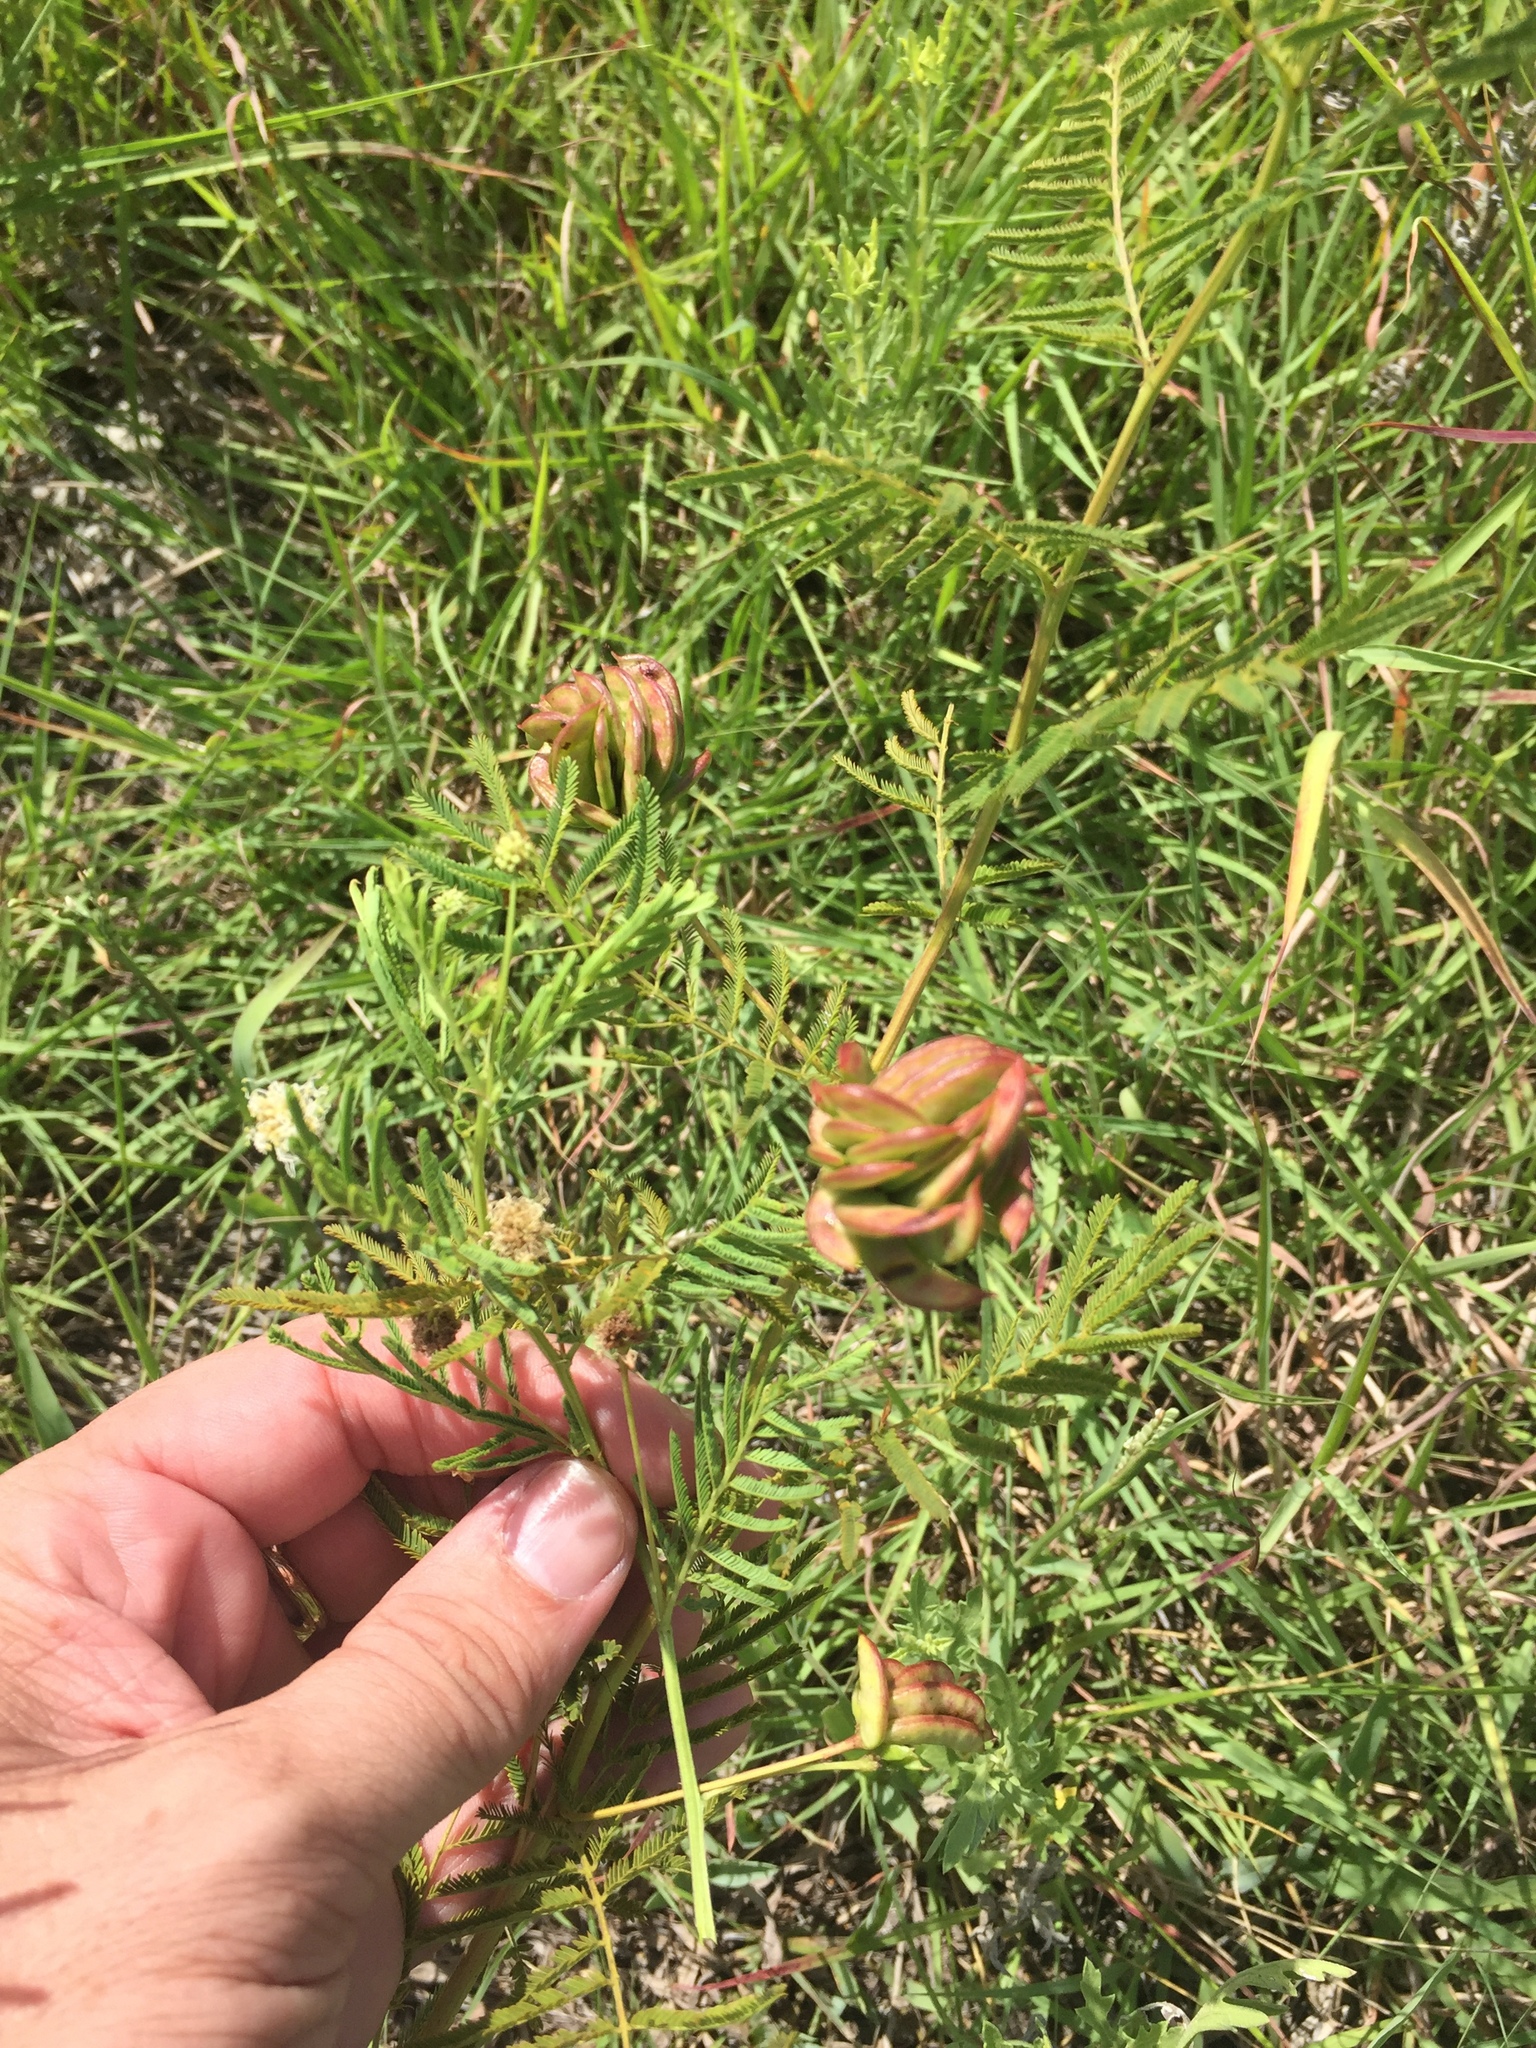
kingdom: Plantae
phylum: Tracheophyta
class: Magnoliopsida
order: Fabales
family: Fabaceae
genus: Desmanthus
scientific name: Desmanthus illinoensis
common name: Illinois bundle-flower
